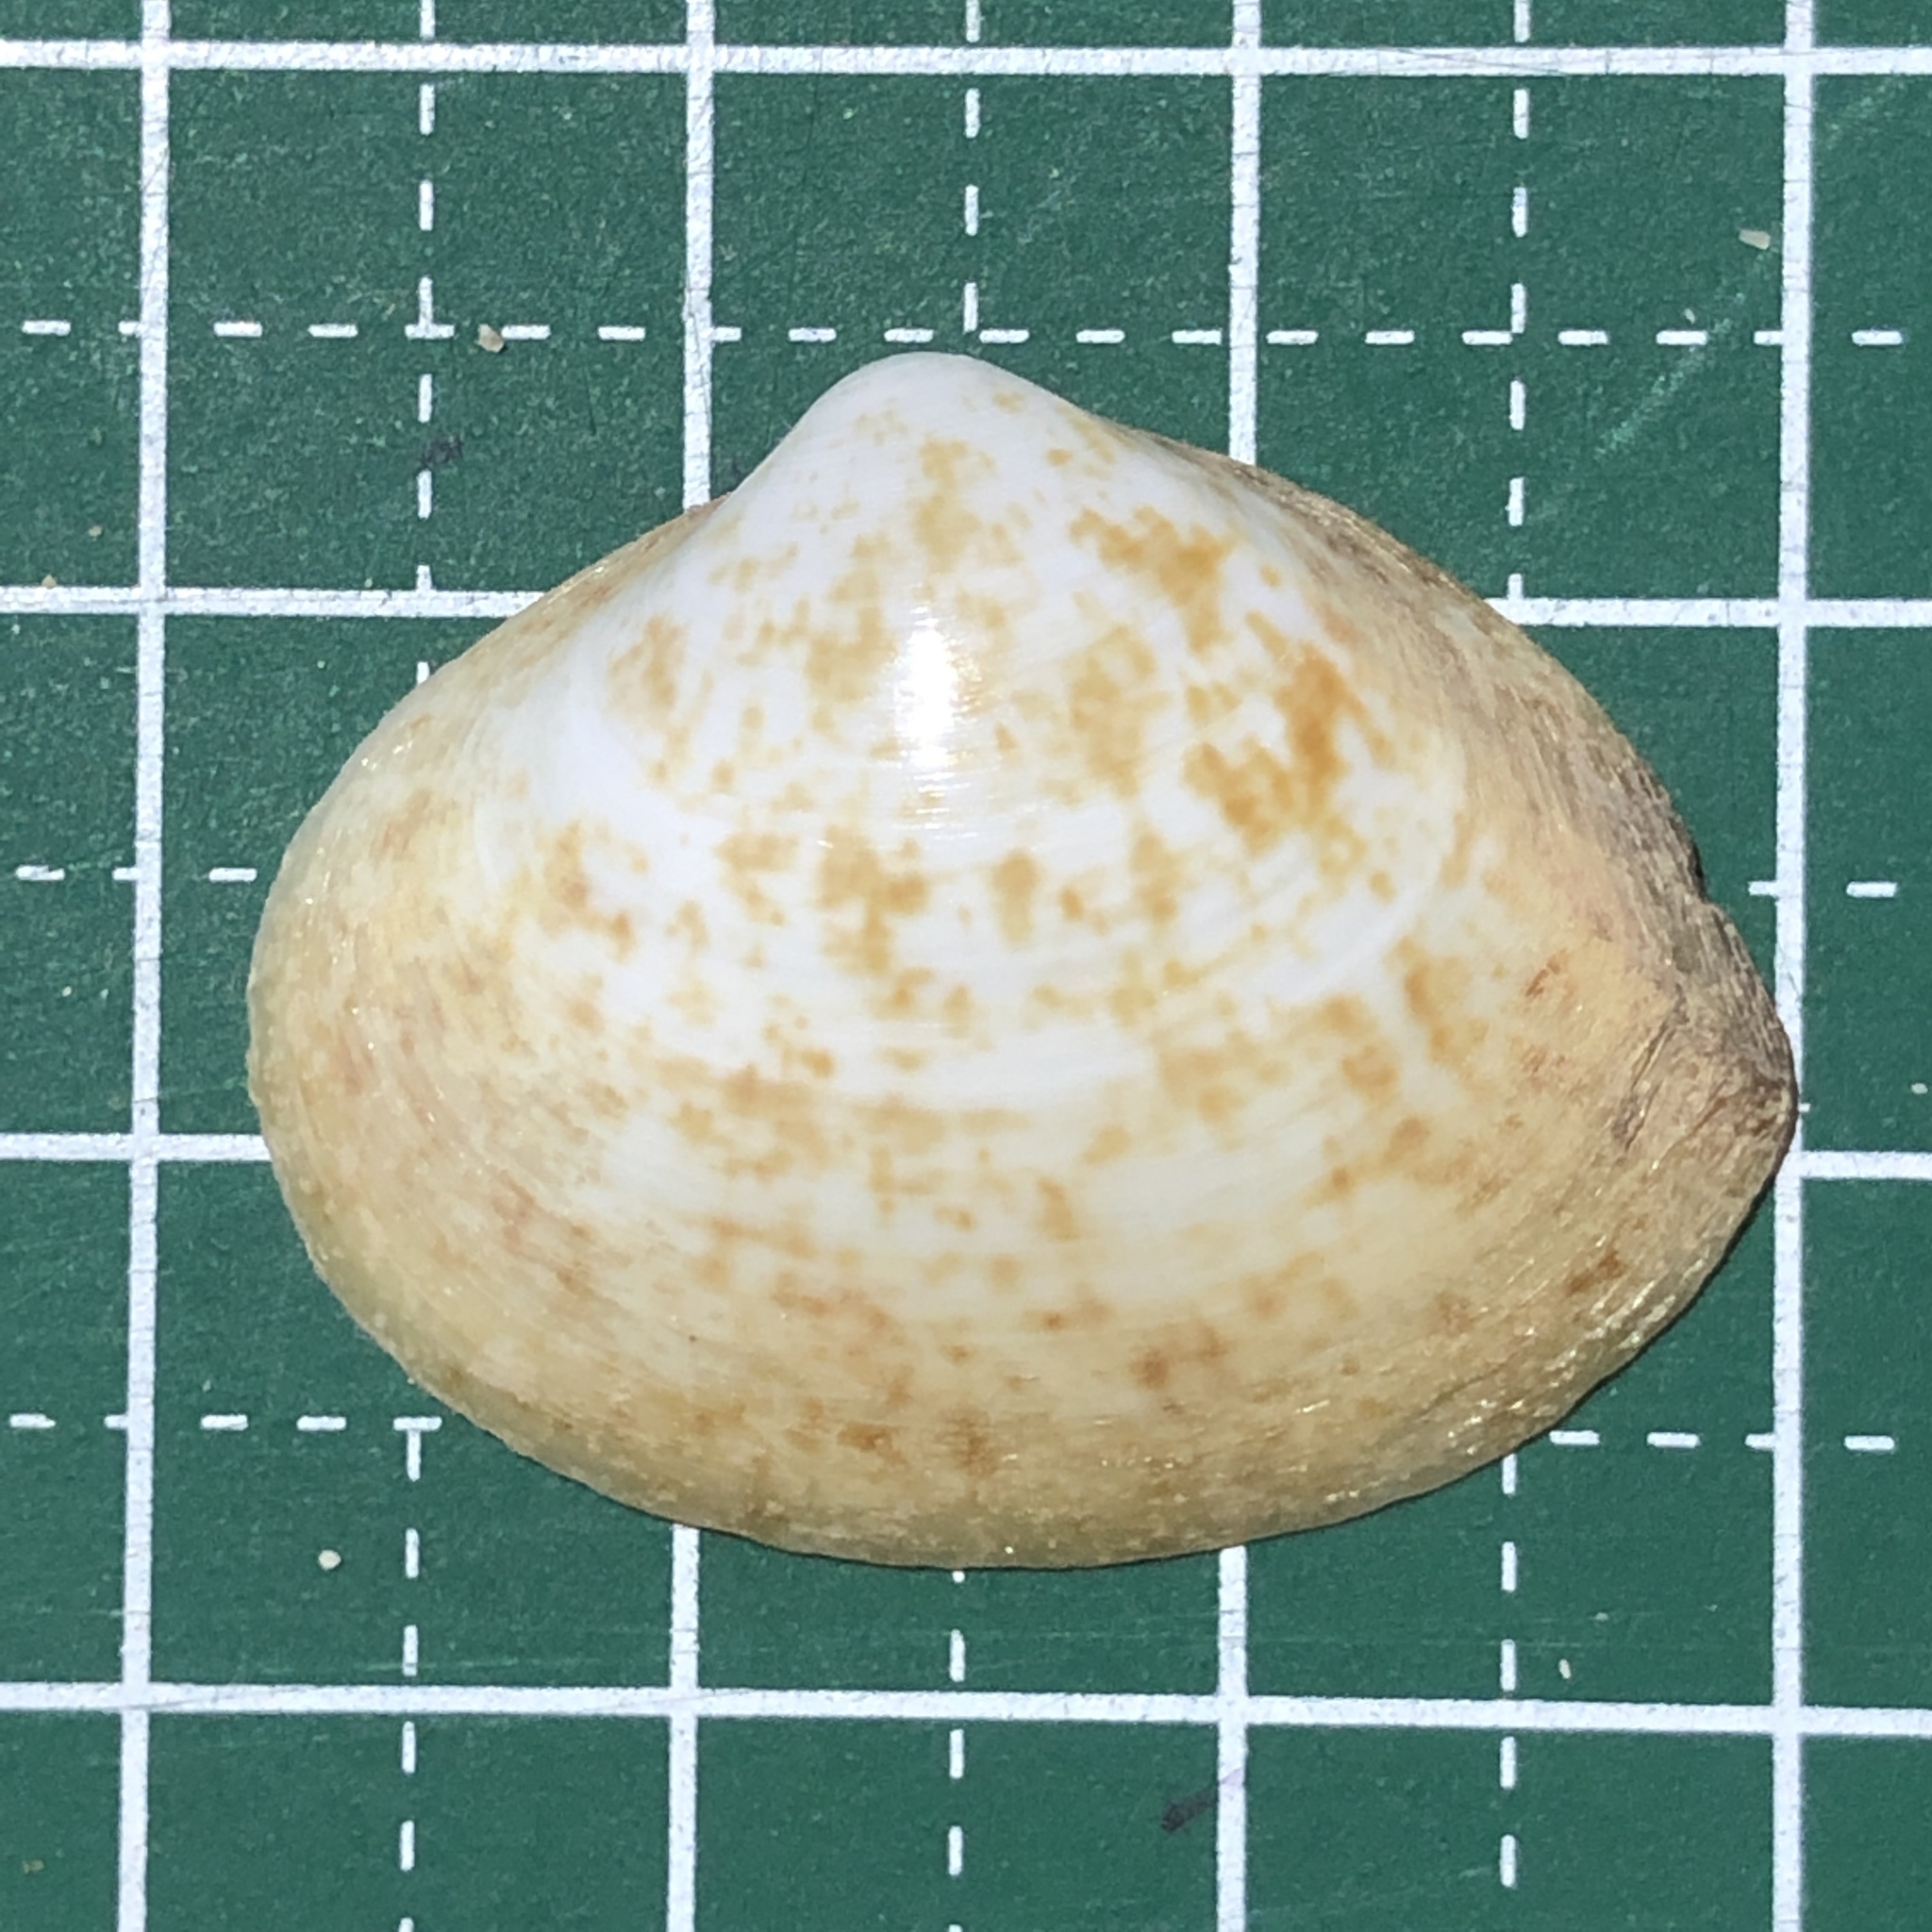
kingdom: Animalia
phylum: Mollusca
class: Bivalvia
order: Venerida
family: Mactridae
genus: Mactra
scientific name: Mactra maculata
